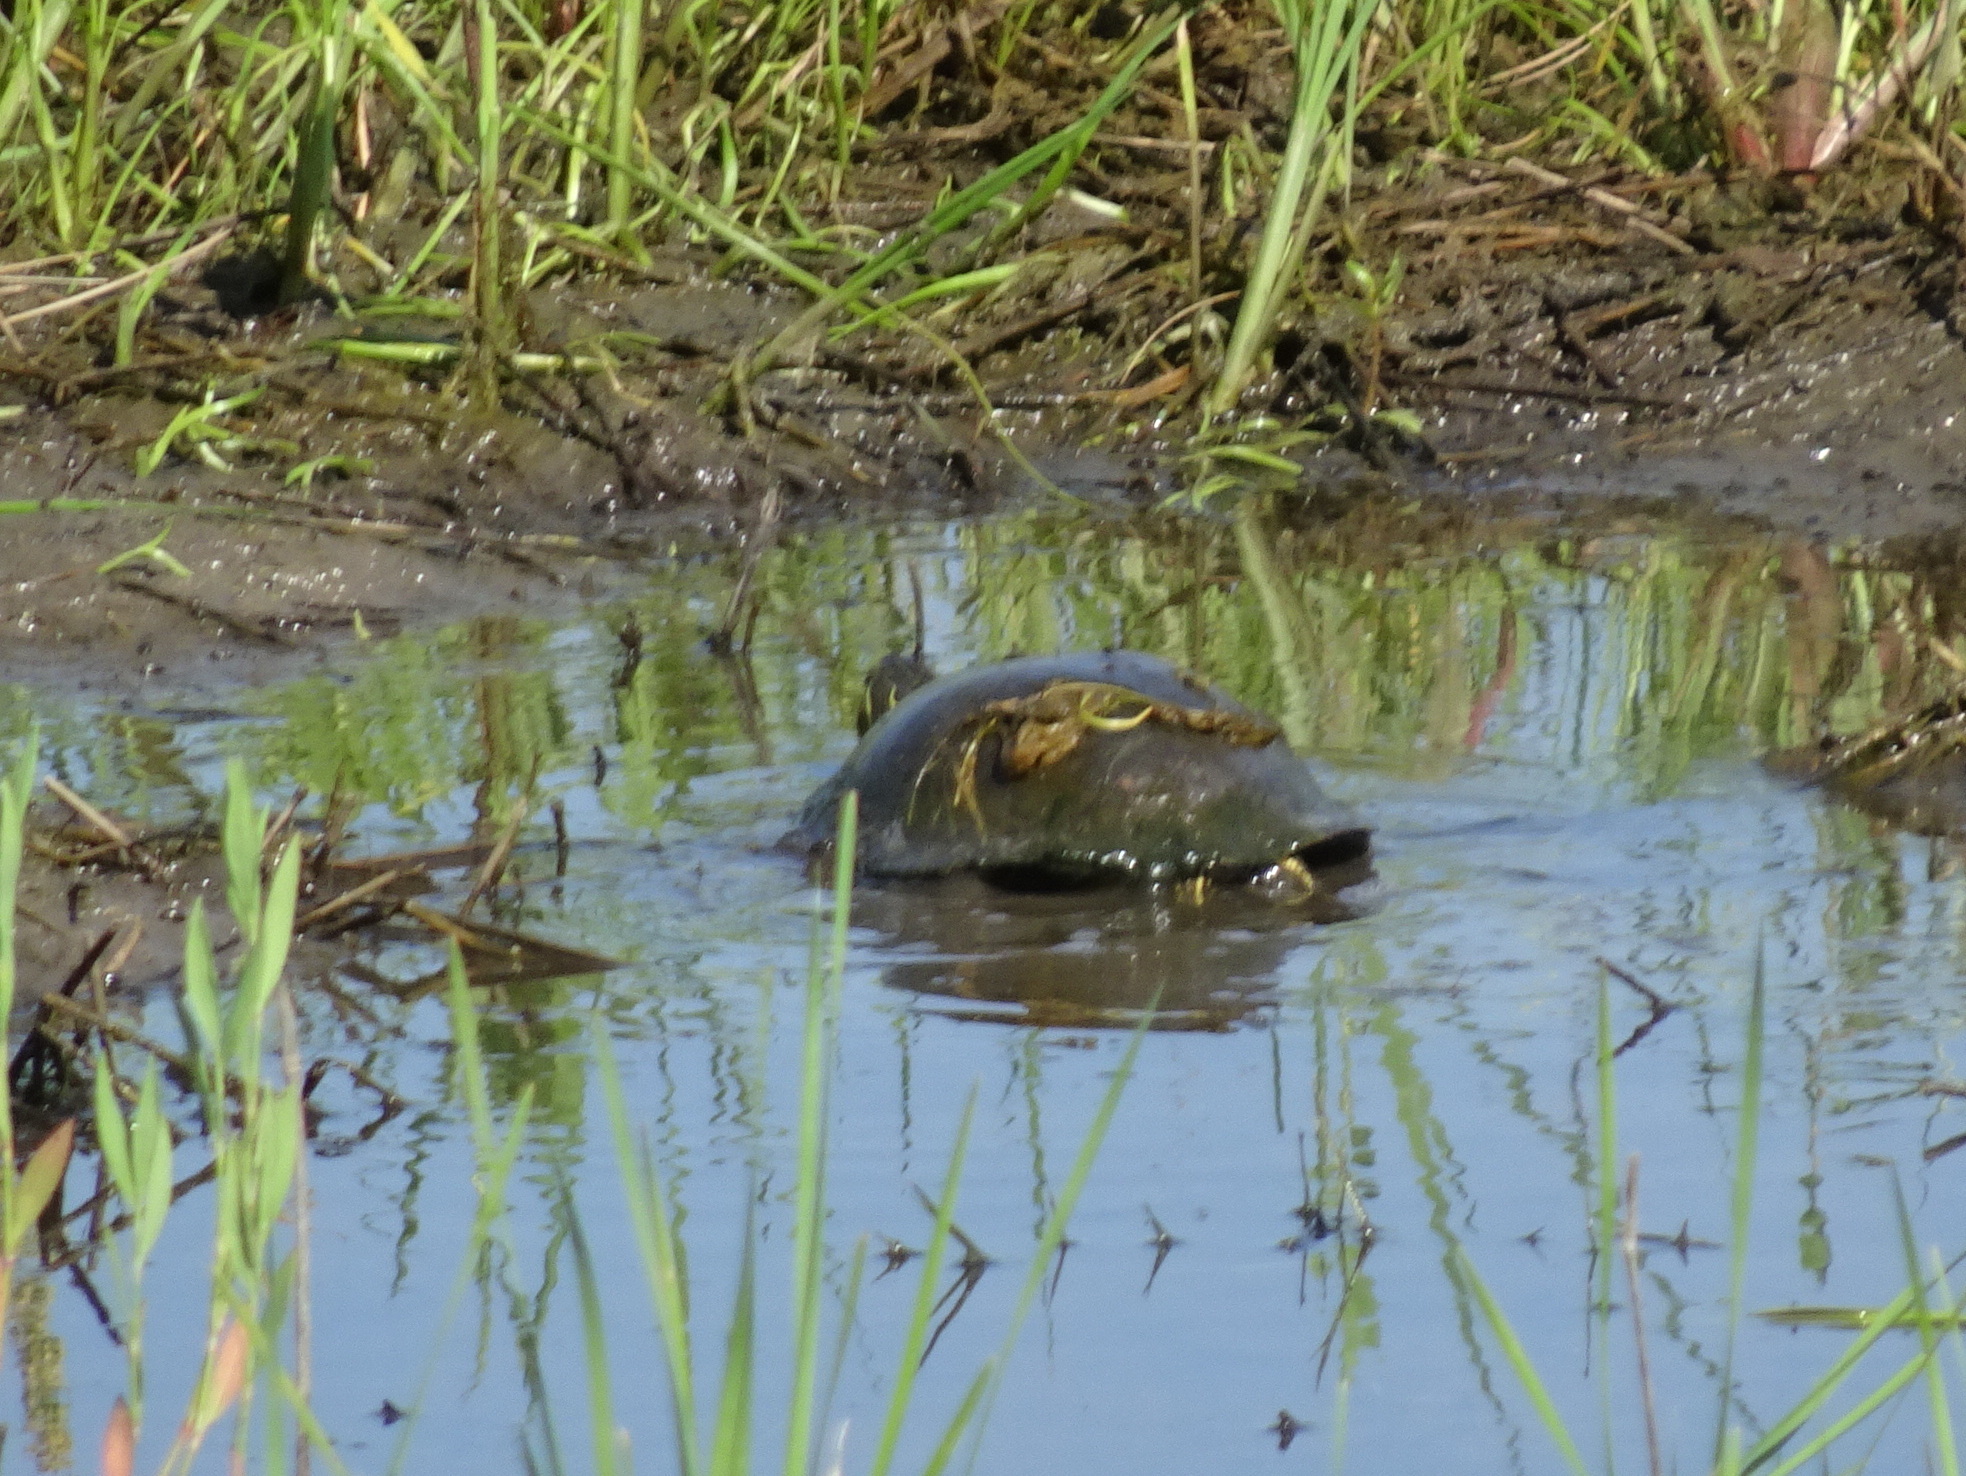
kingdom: Animalia
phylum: Chordata
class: Testudines
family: Emydidae
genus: Chrysemys
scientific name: Chrysemys picta
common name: Painted turtle
